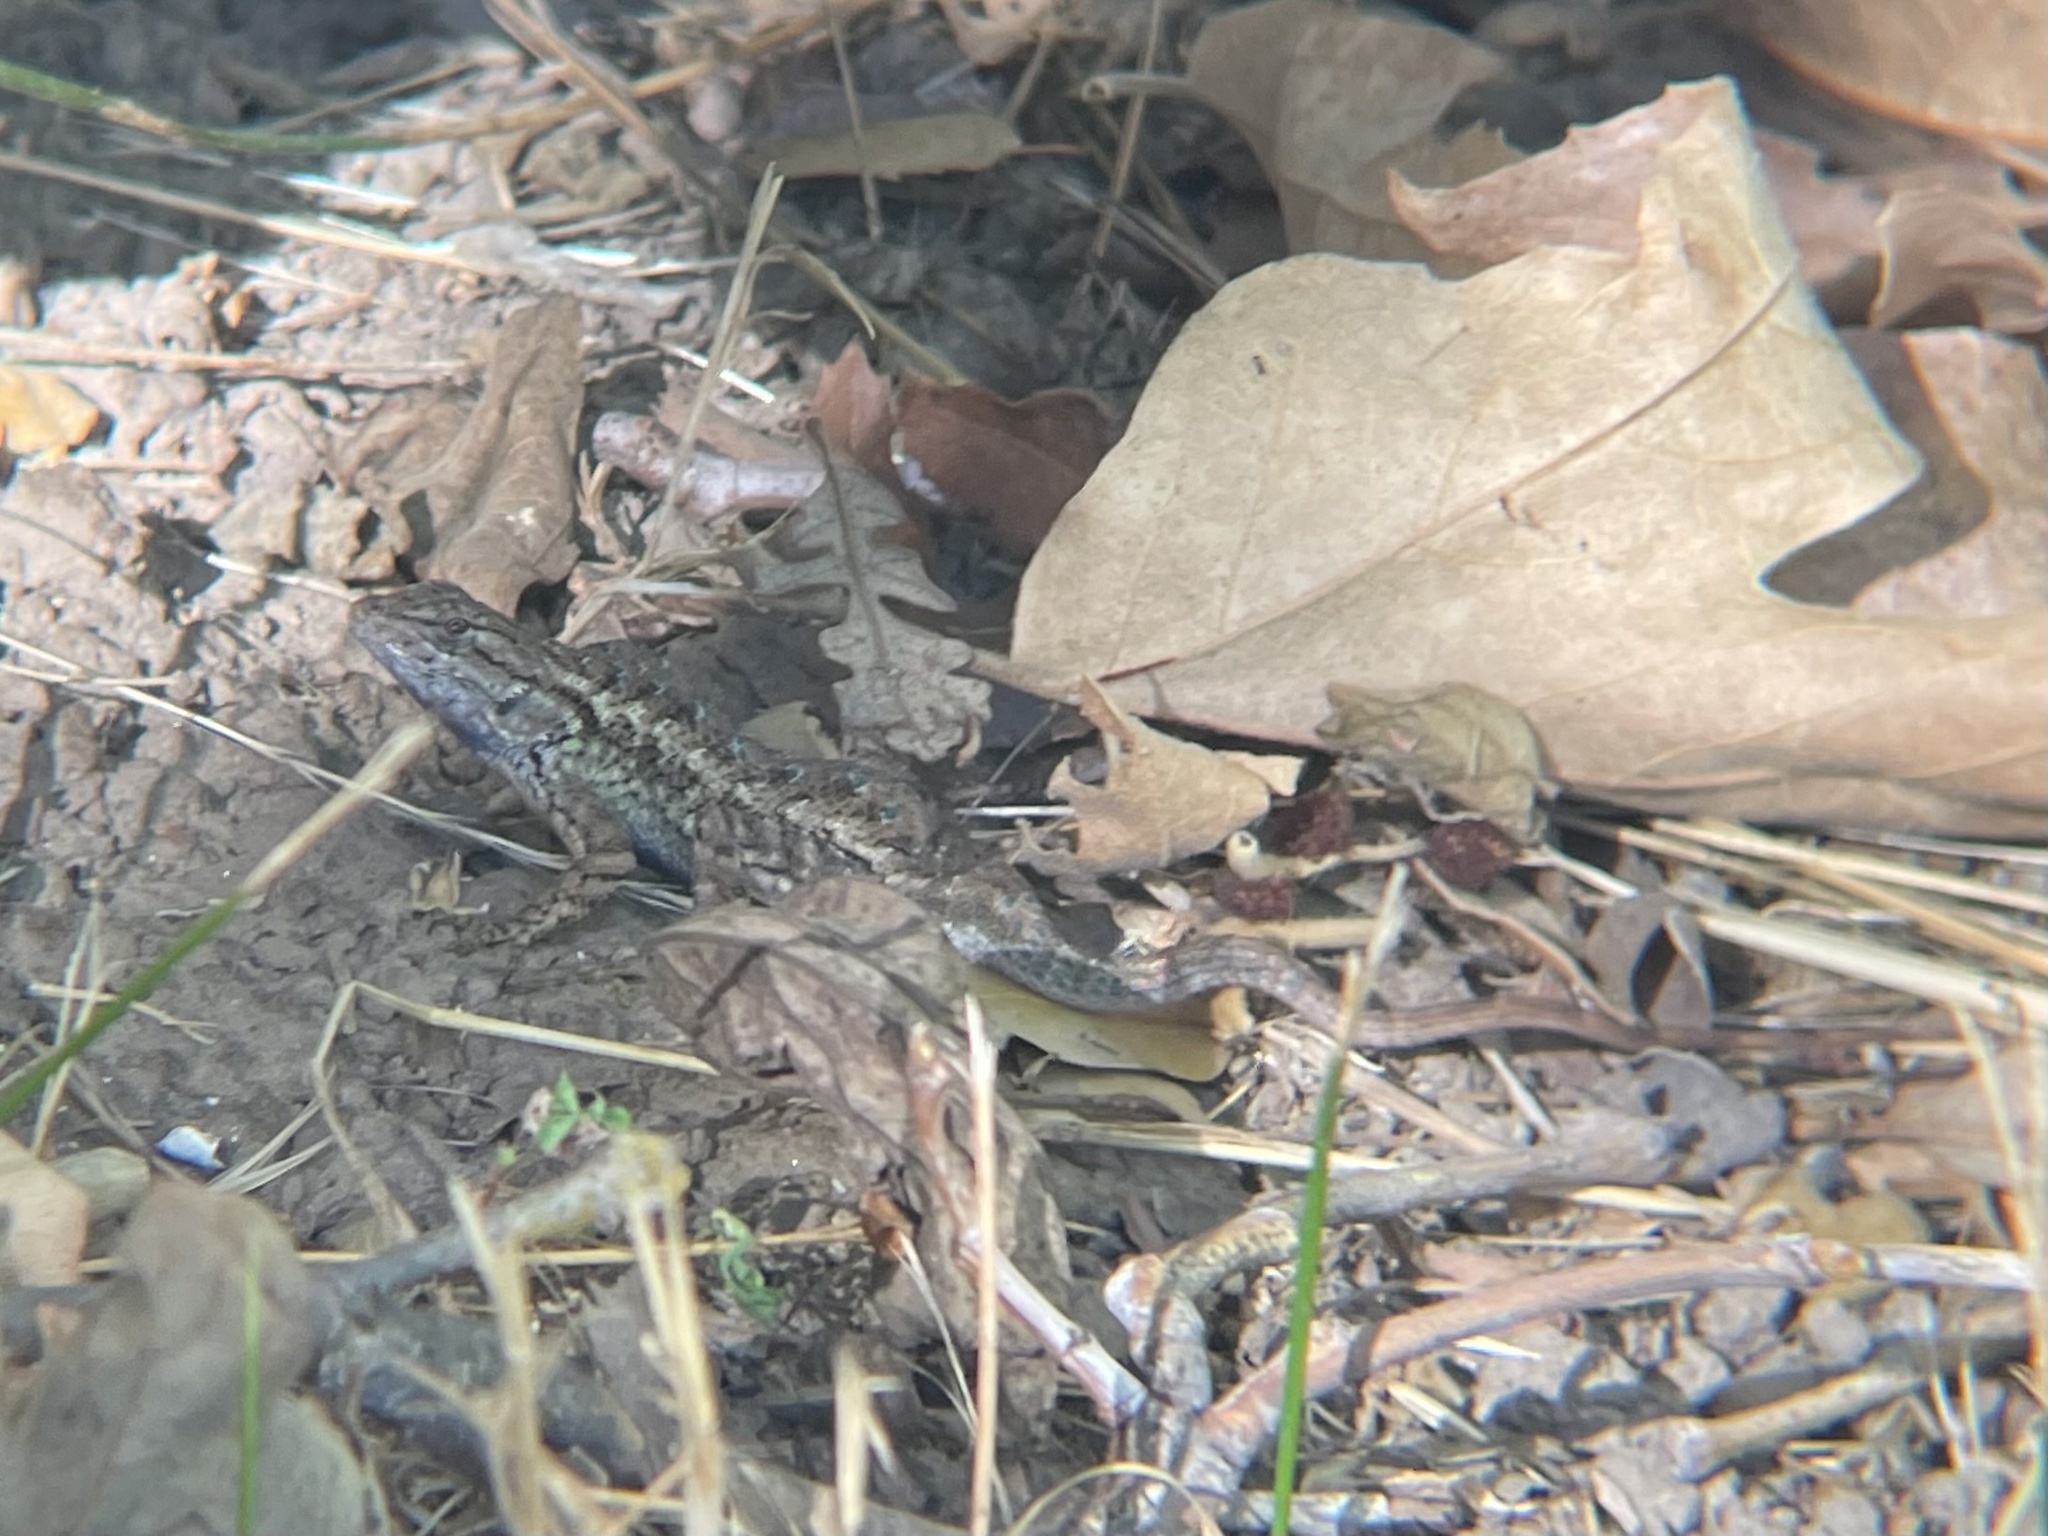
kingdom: Animalia
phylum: Chordata
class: Squamata
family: Phrynosomatidae
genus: Sceloporus
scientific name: Sceloporus occidentalis
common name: Western fence lizard
